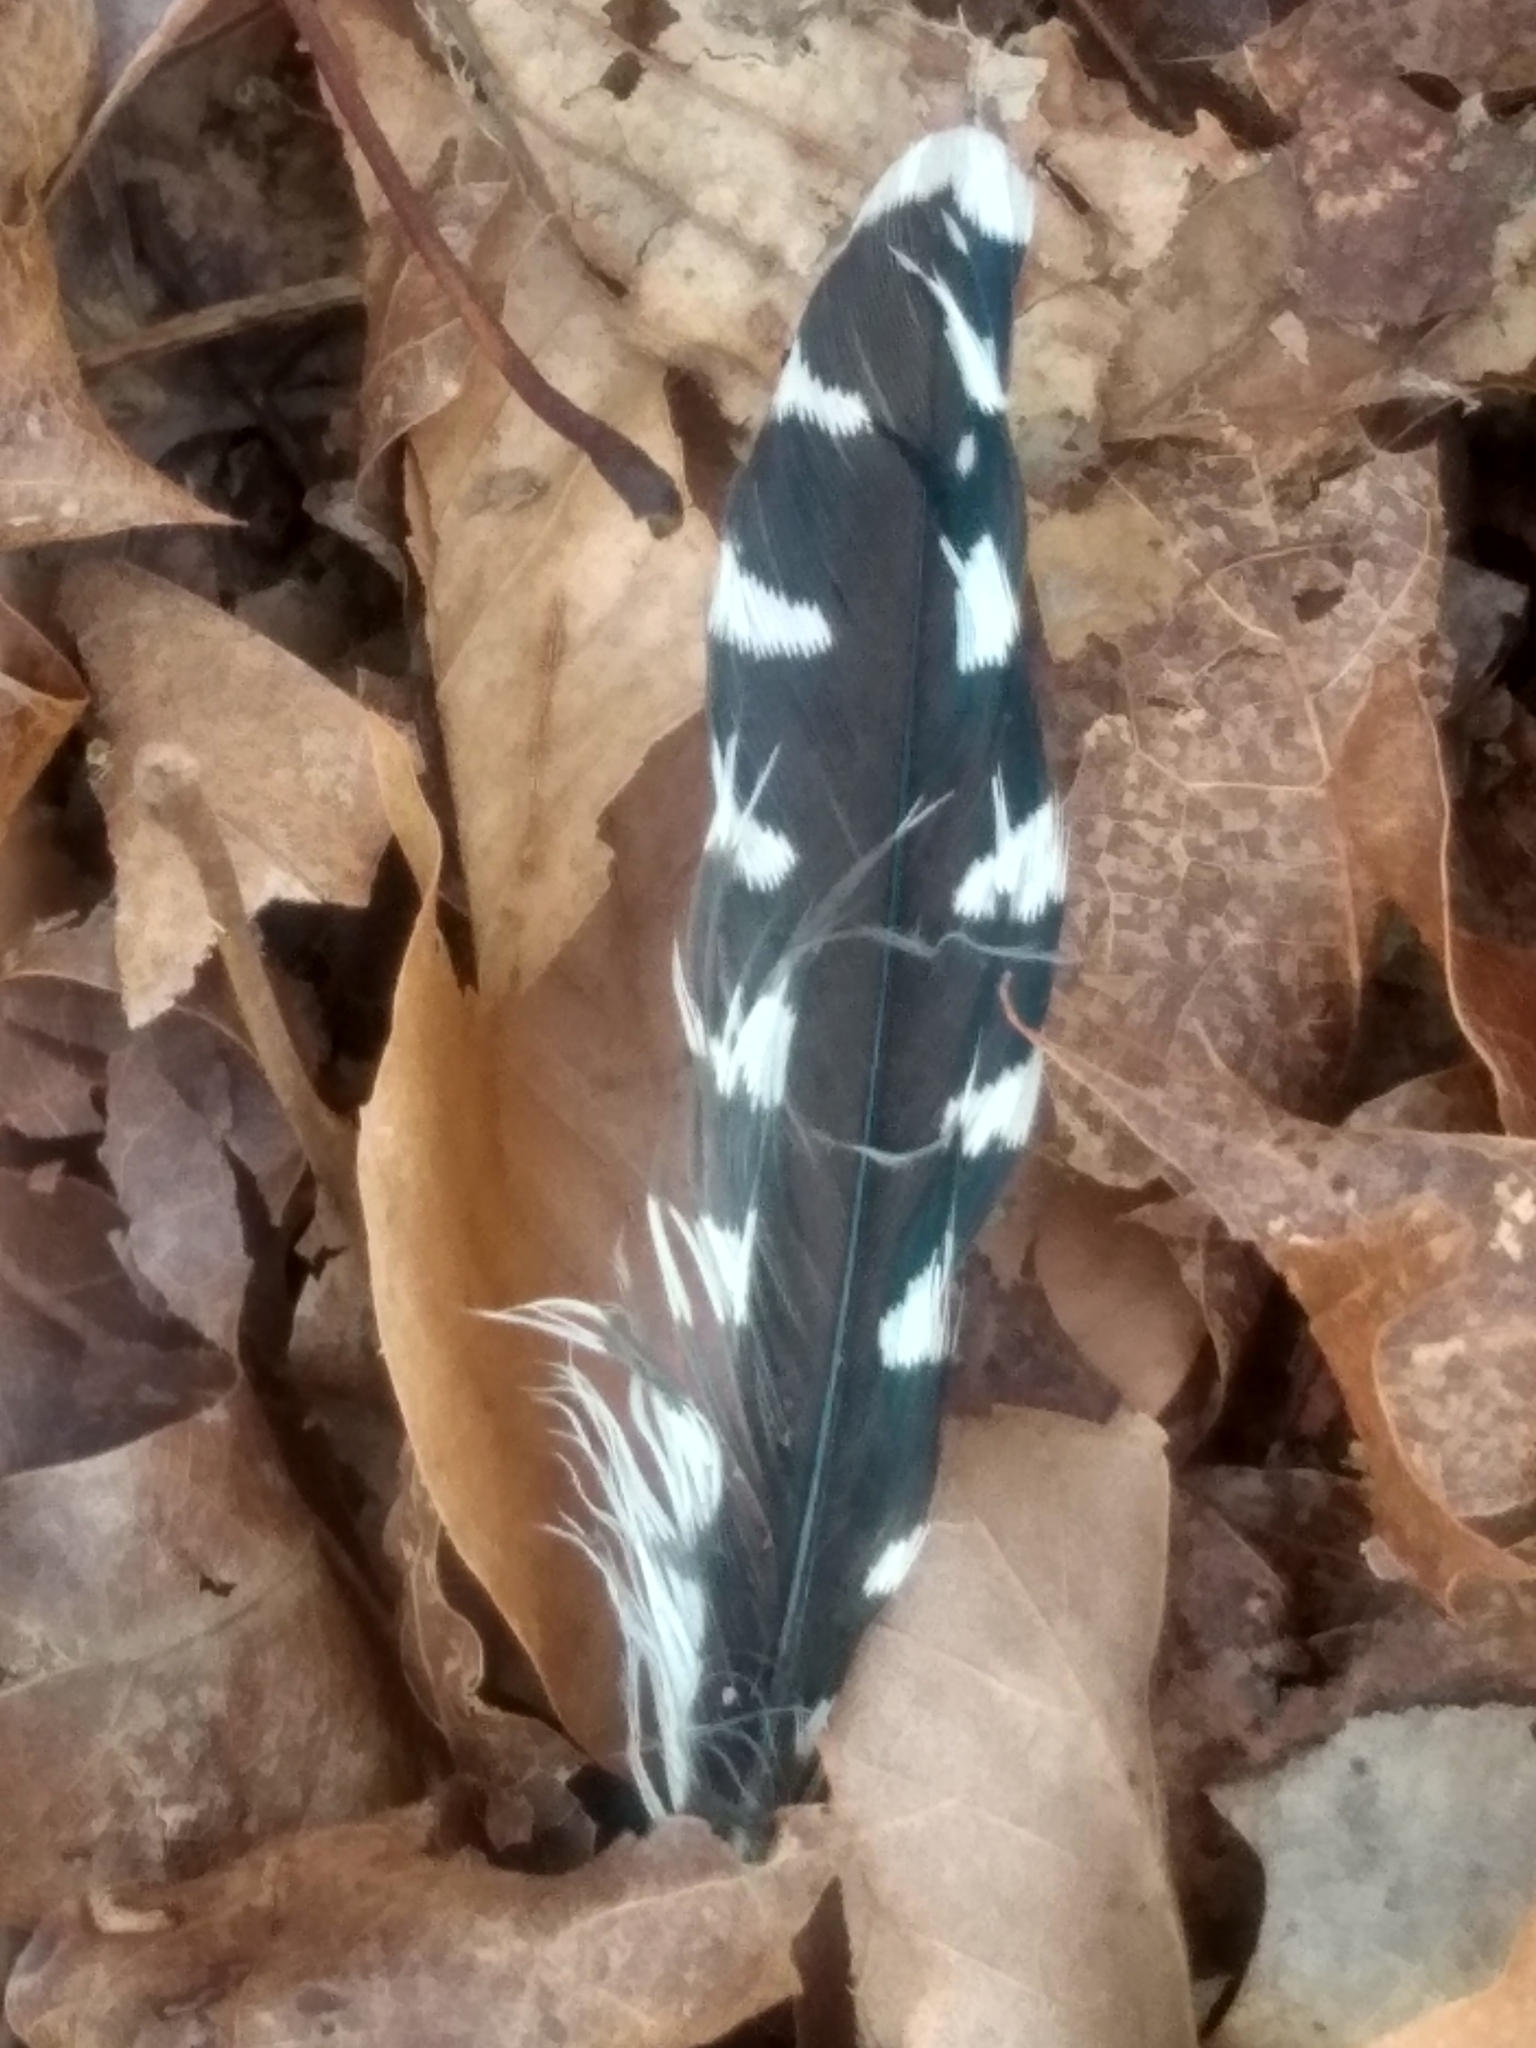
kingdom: Animalia
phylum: Chordata
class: Aves
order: Piciformes
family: Picidae
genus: Melanerpes
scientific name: Melanerpes carolinus
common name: Red-bellied woodpecker
